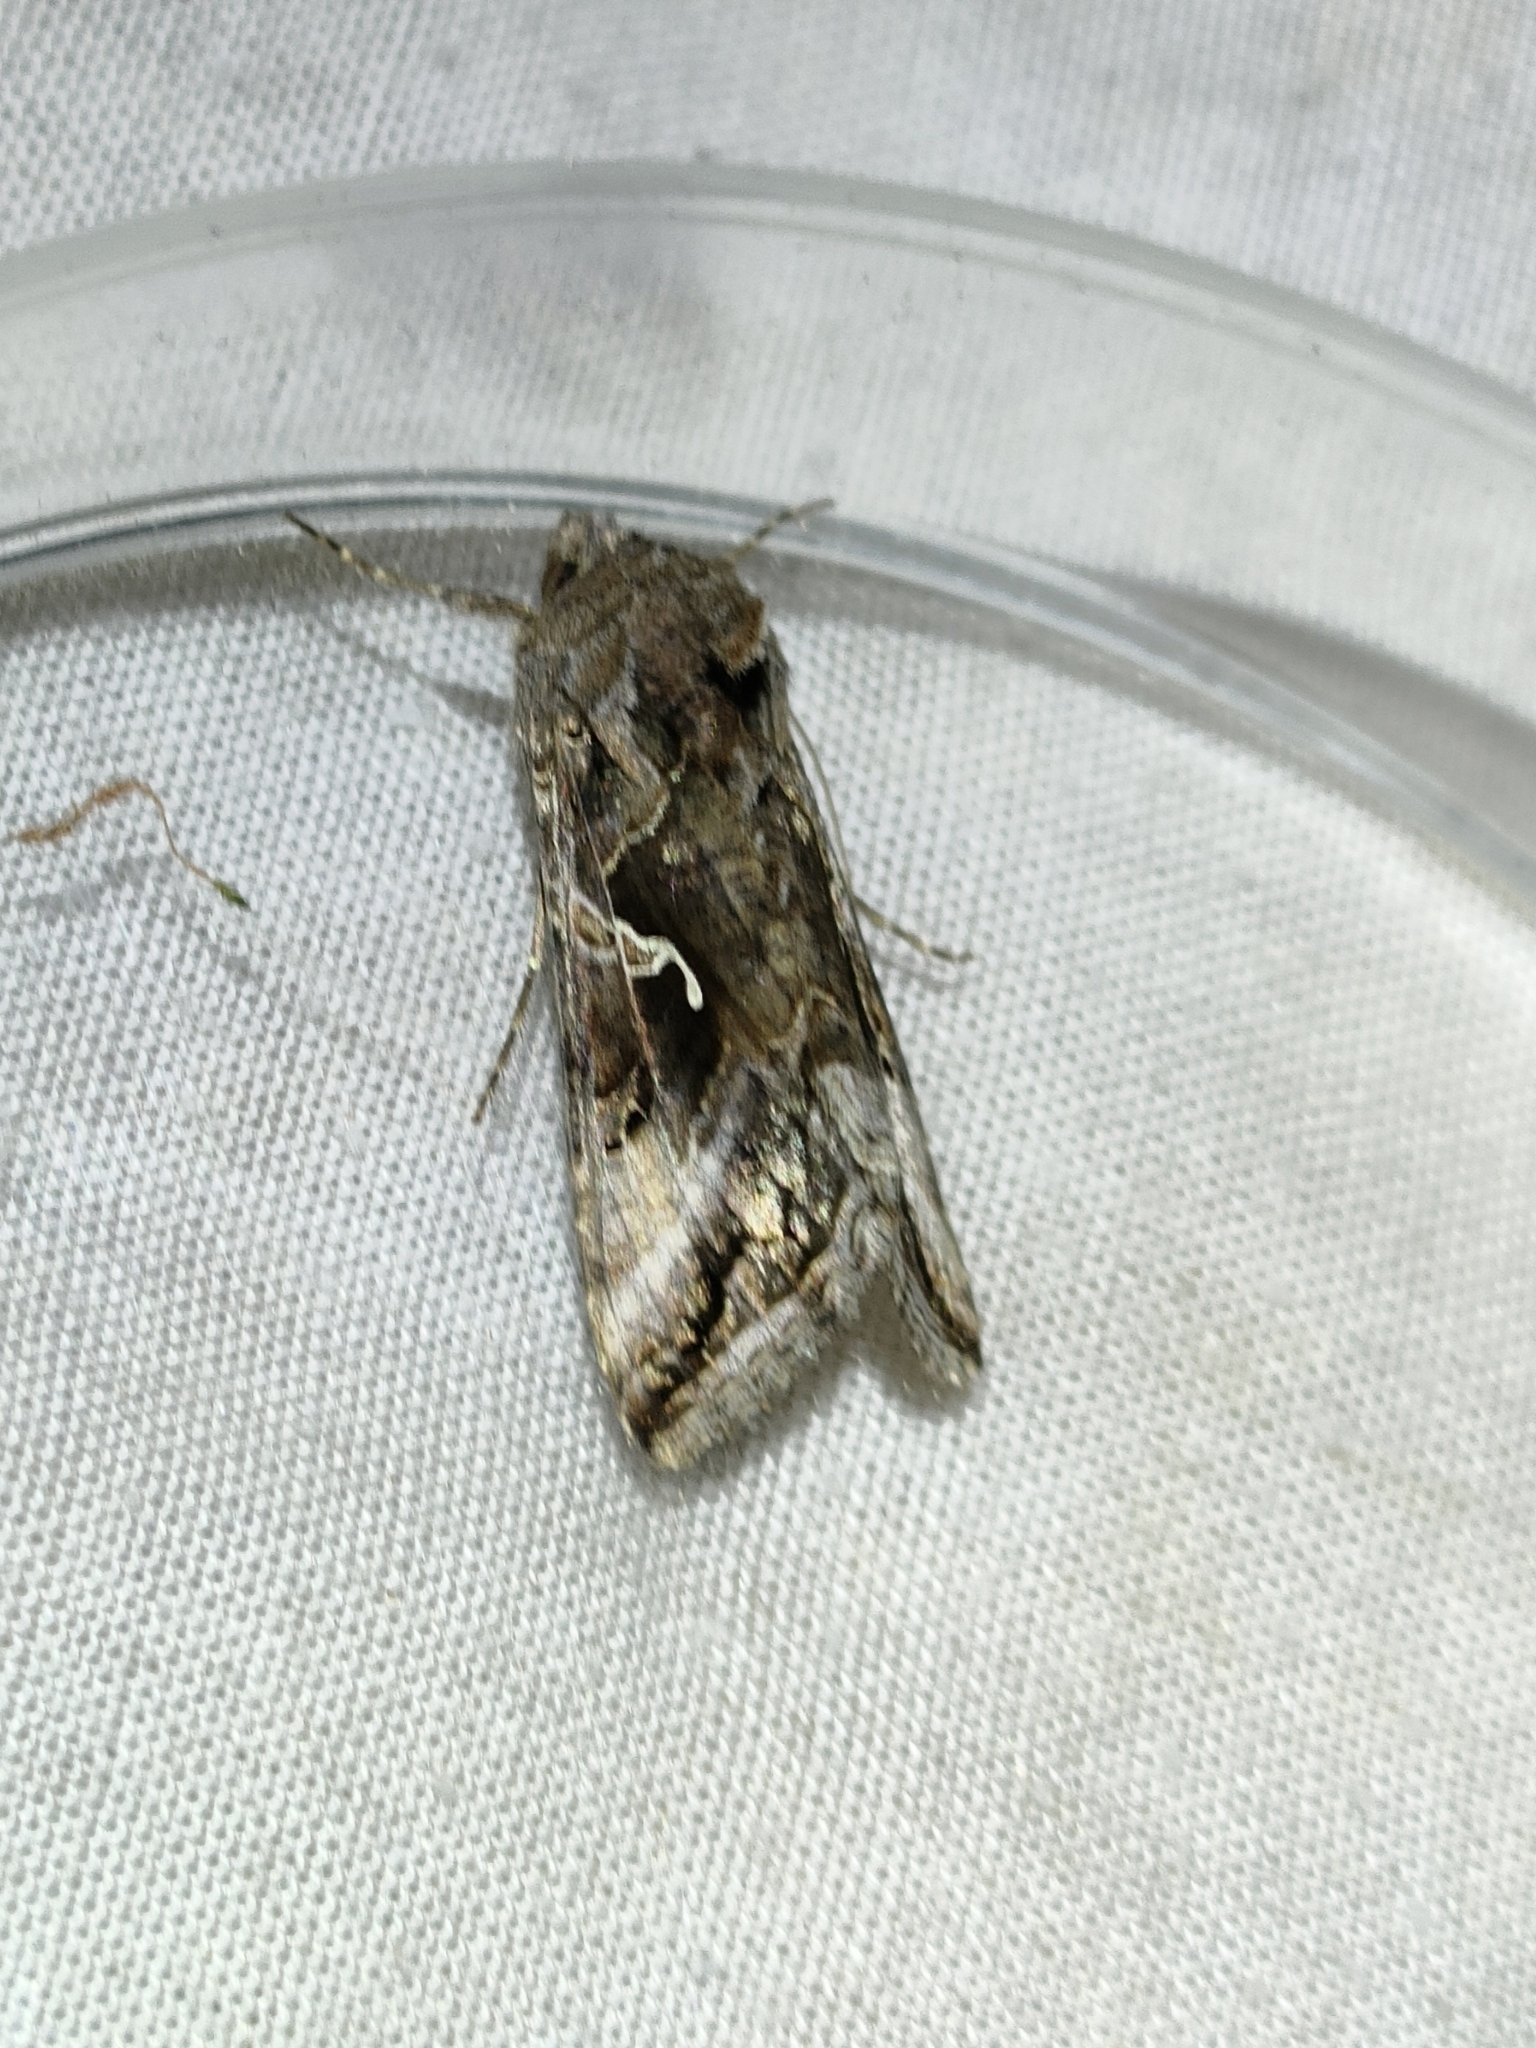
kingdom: Animalia
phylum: Arthropoda
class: Insecta
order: Lepidoptera
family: Noctuidae
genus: Autographa
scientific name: Autographa gamma
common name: Silver y
